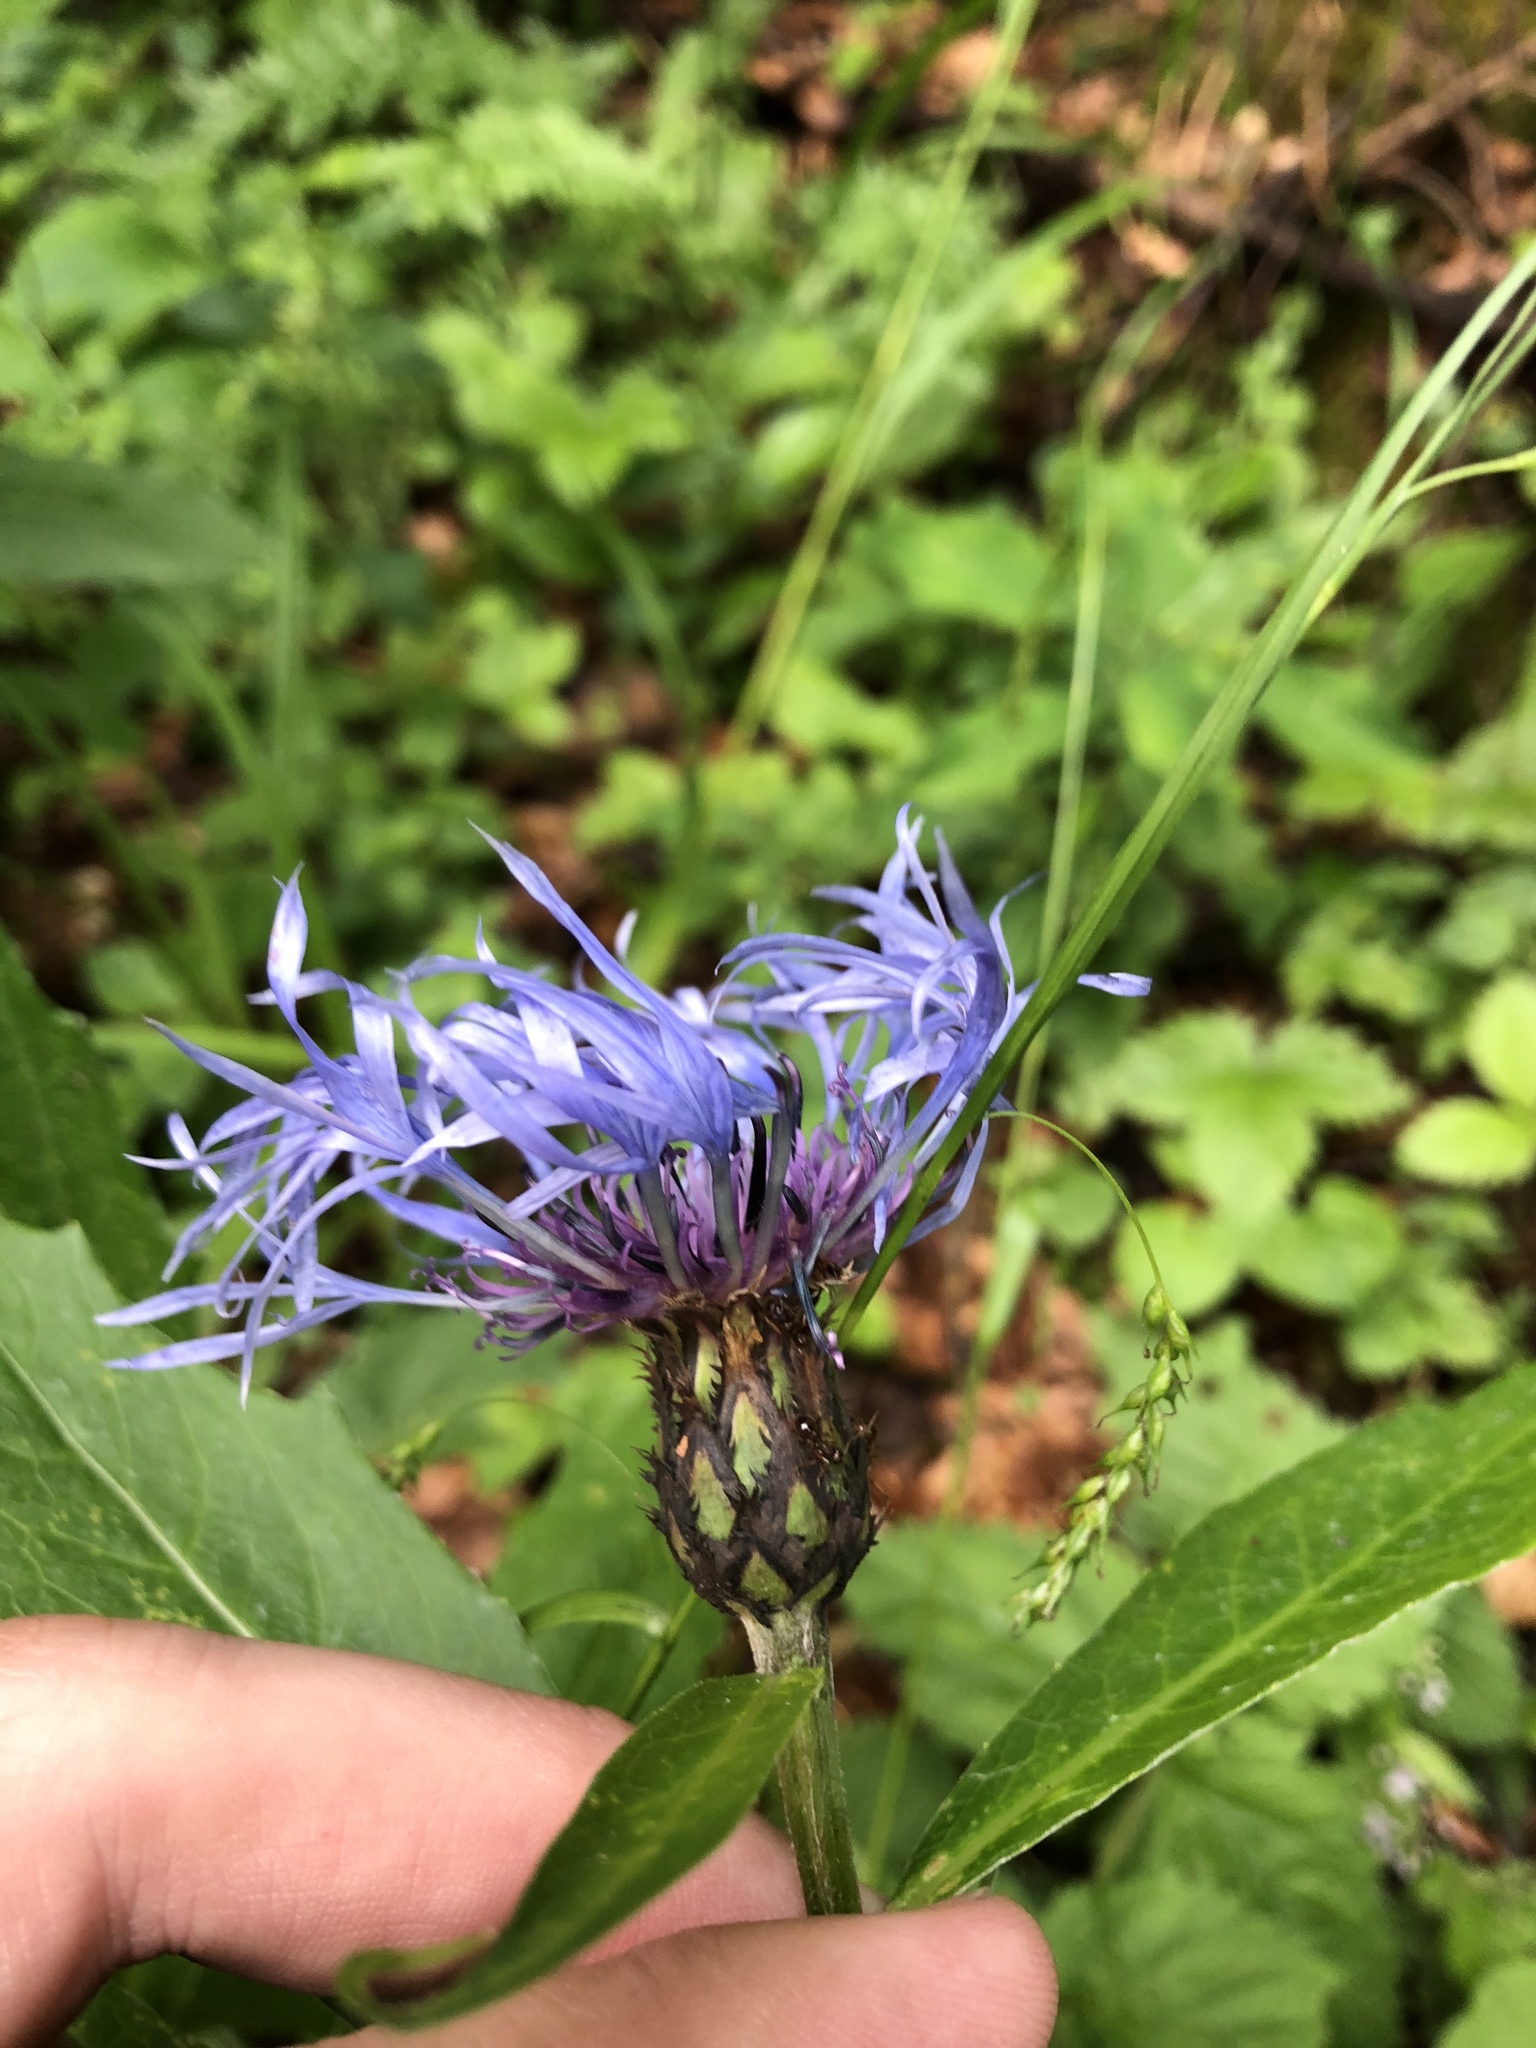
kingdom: Plantae
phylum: Tracheophyta
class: Magnoliopsida
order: Asterales
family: Asteraceae
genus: Centaurea
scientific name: Centaurea triumfettii
